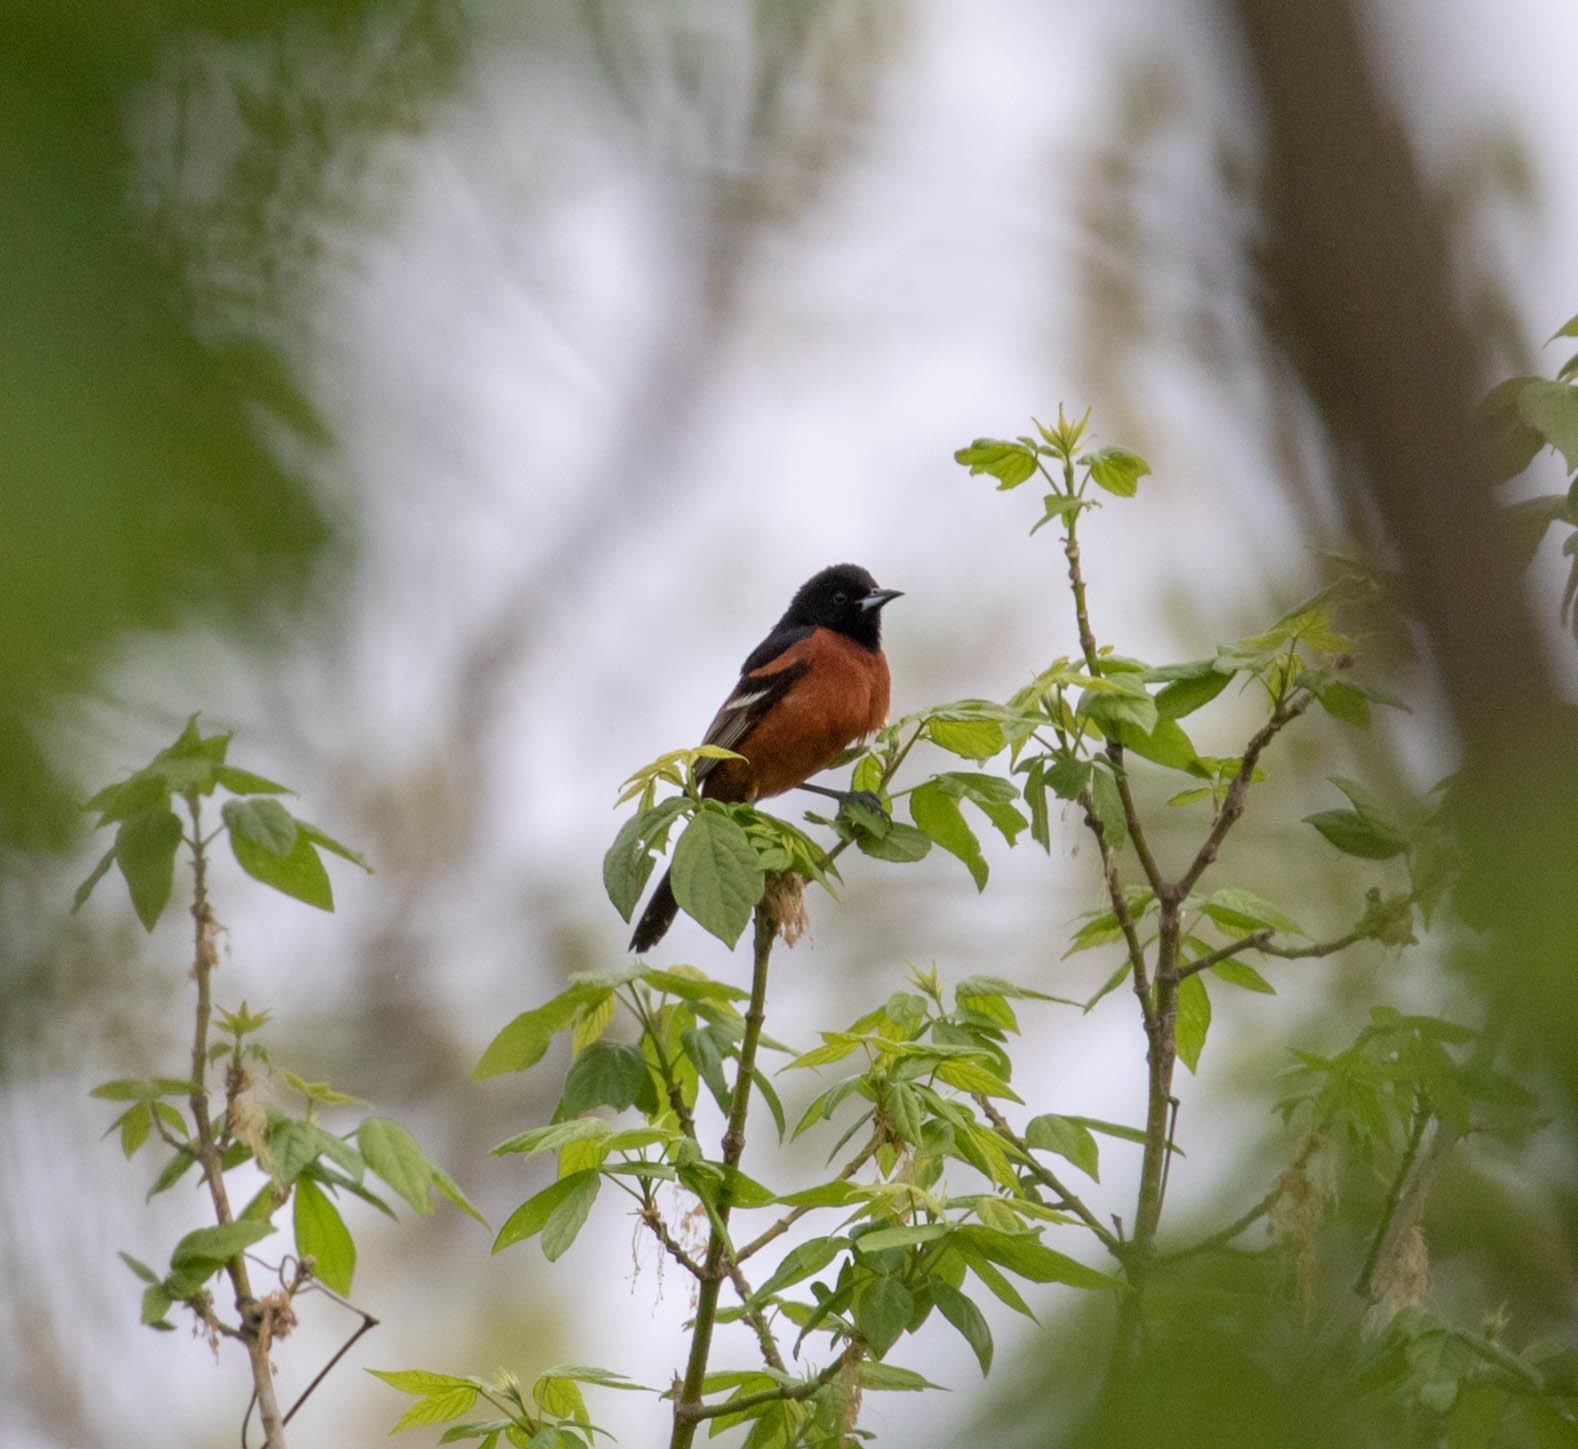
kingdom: Animalia
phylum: Chordata
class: Aves
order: Passeriformes
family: Icteridae
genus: Icterus
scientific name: Icterus spurius
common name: Orchard oriole
